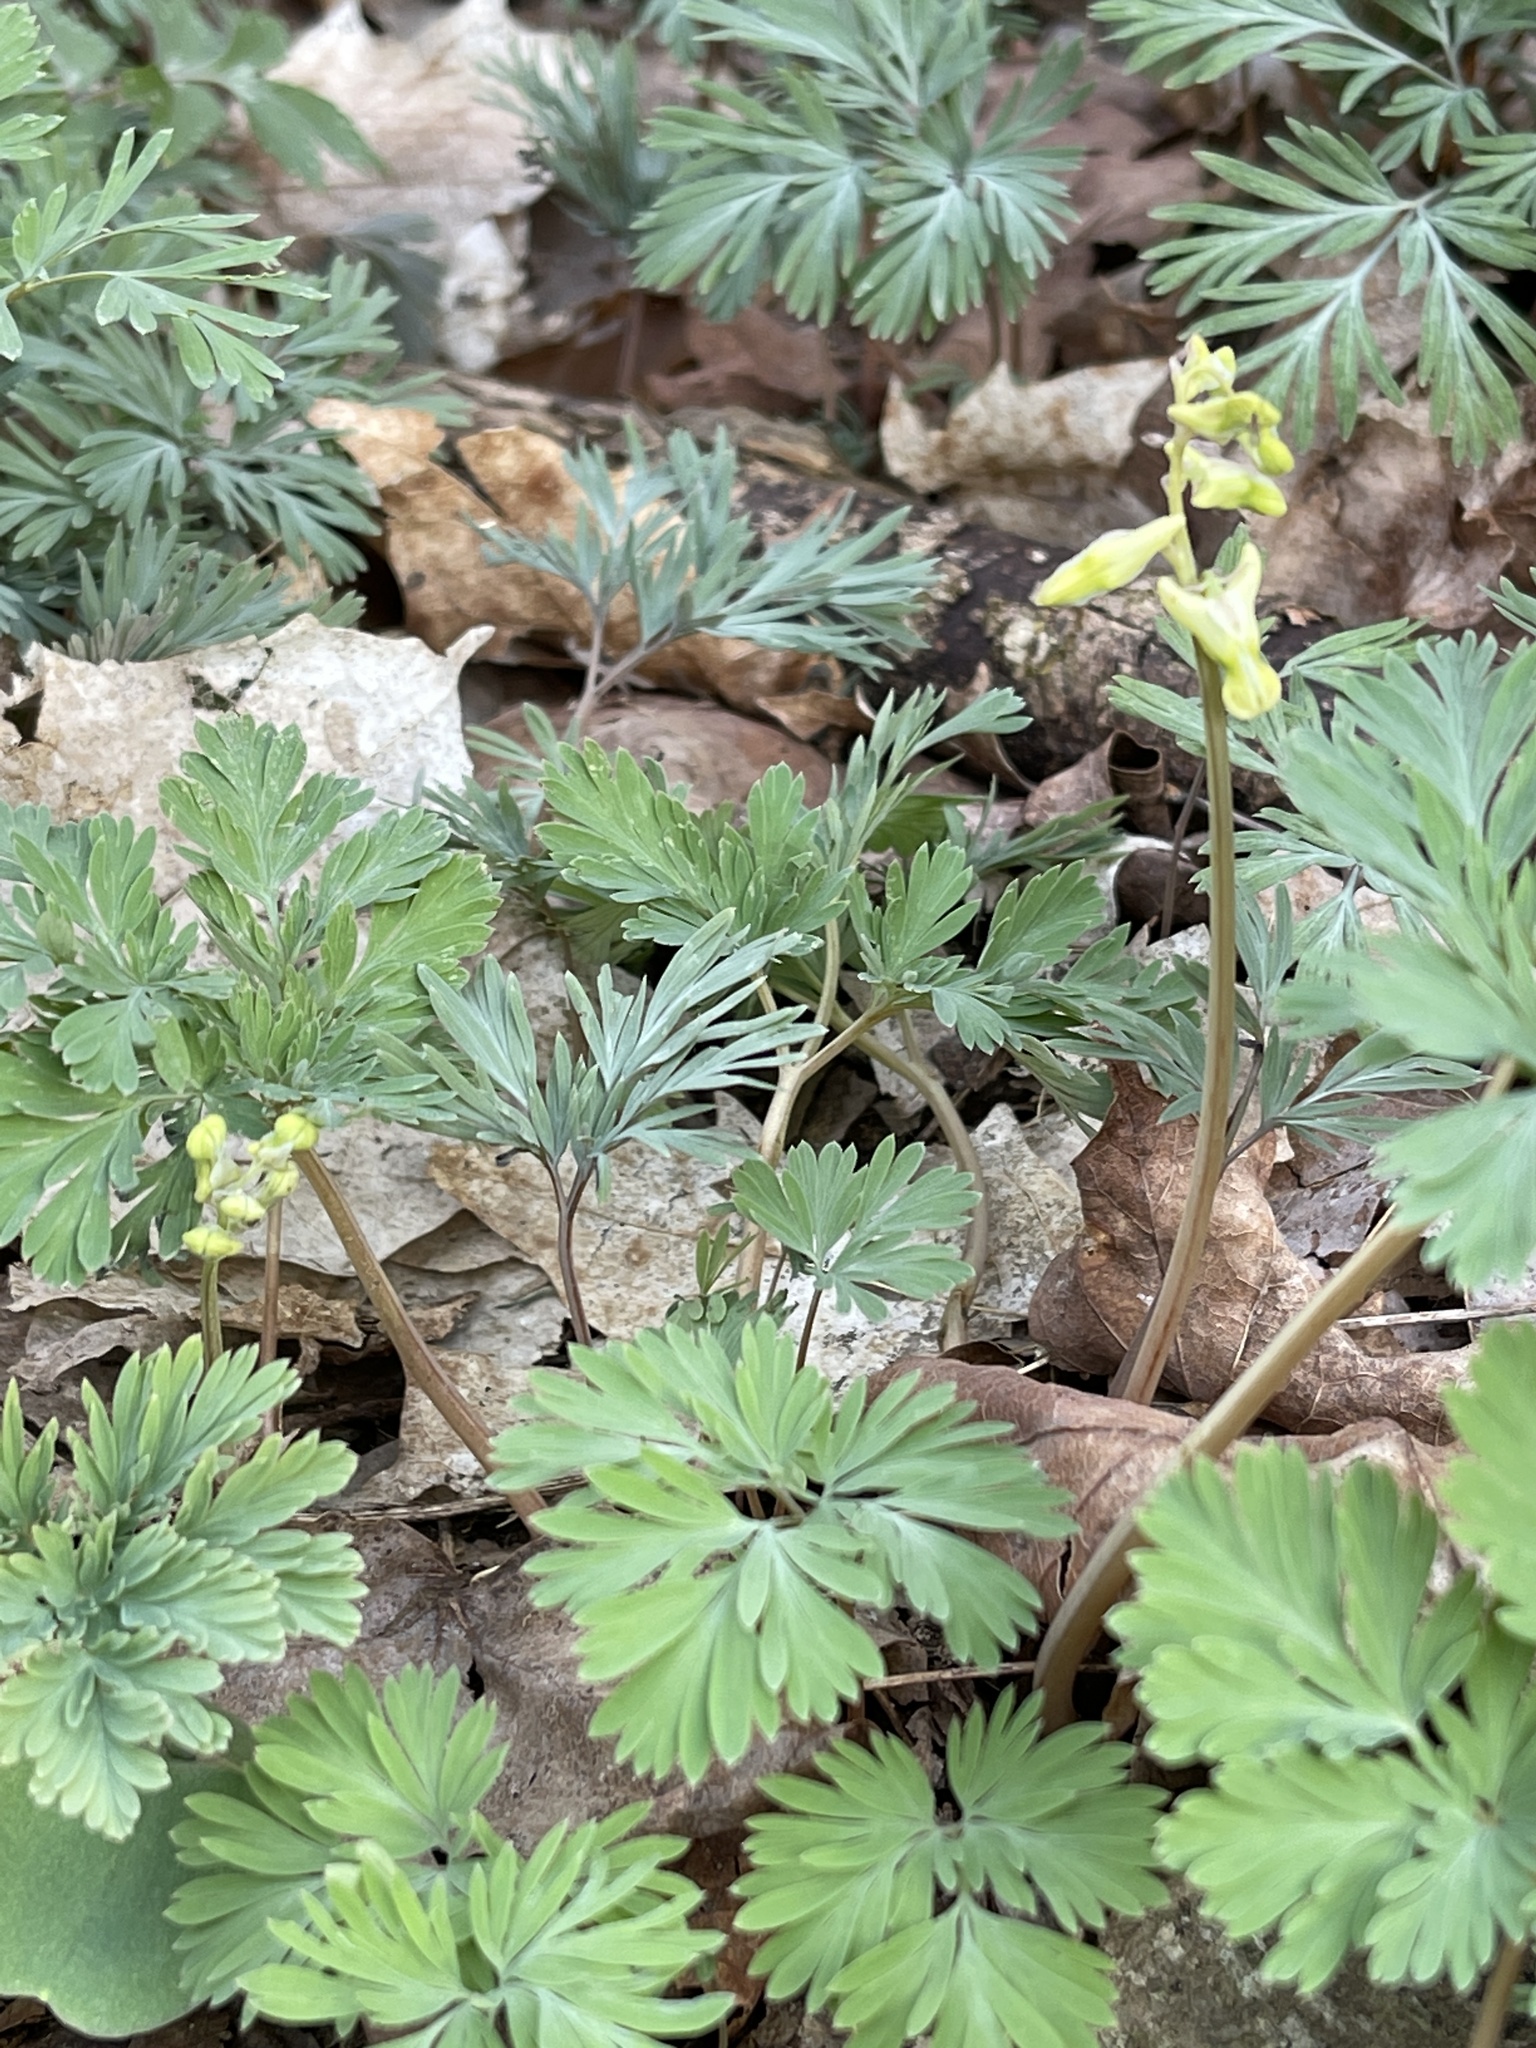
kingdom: Plantae
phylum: Tracheophyta
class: Magnoliopsida
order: Ranunculales
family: Papaveraceae
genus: Dicentra
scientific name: Dicentra cucullaria
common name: Dutchman's breeches
